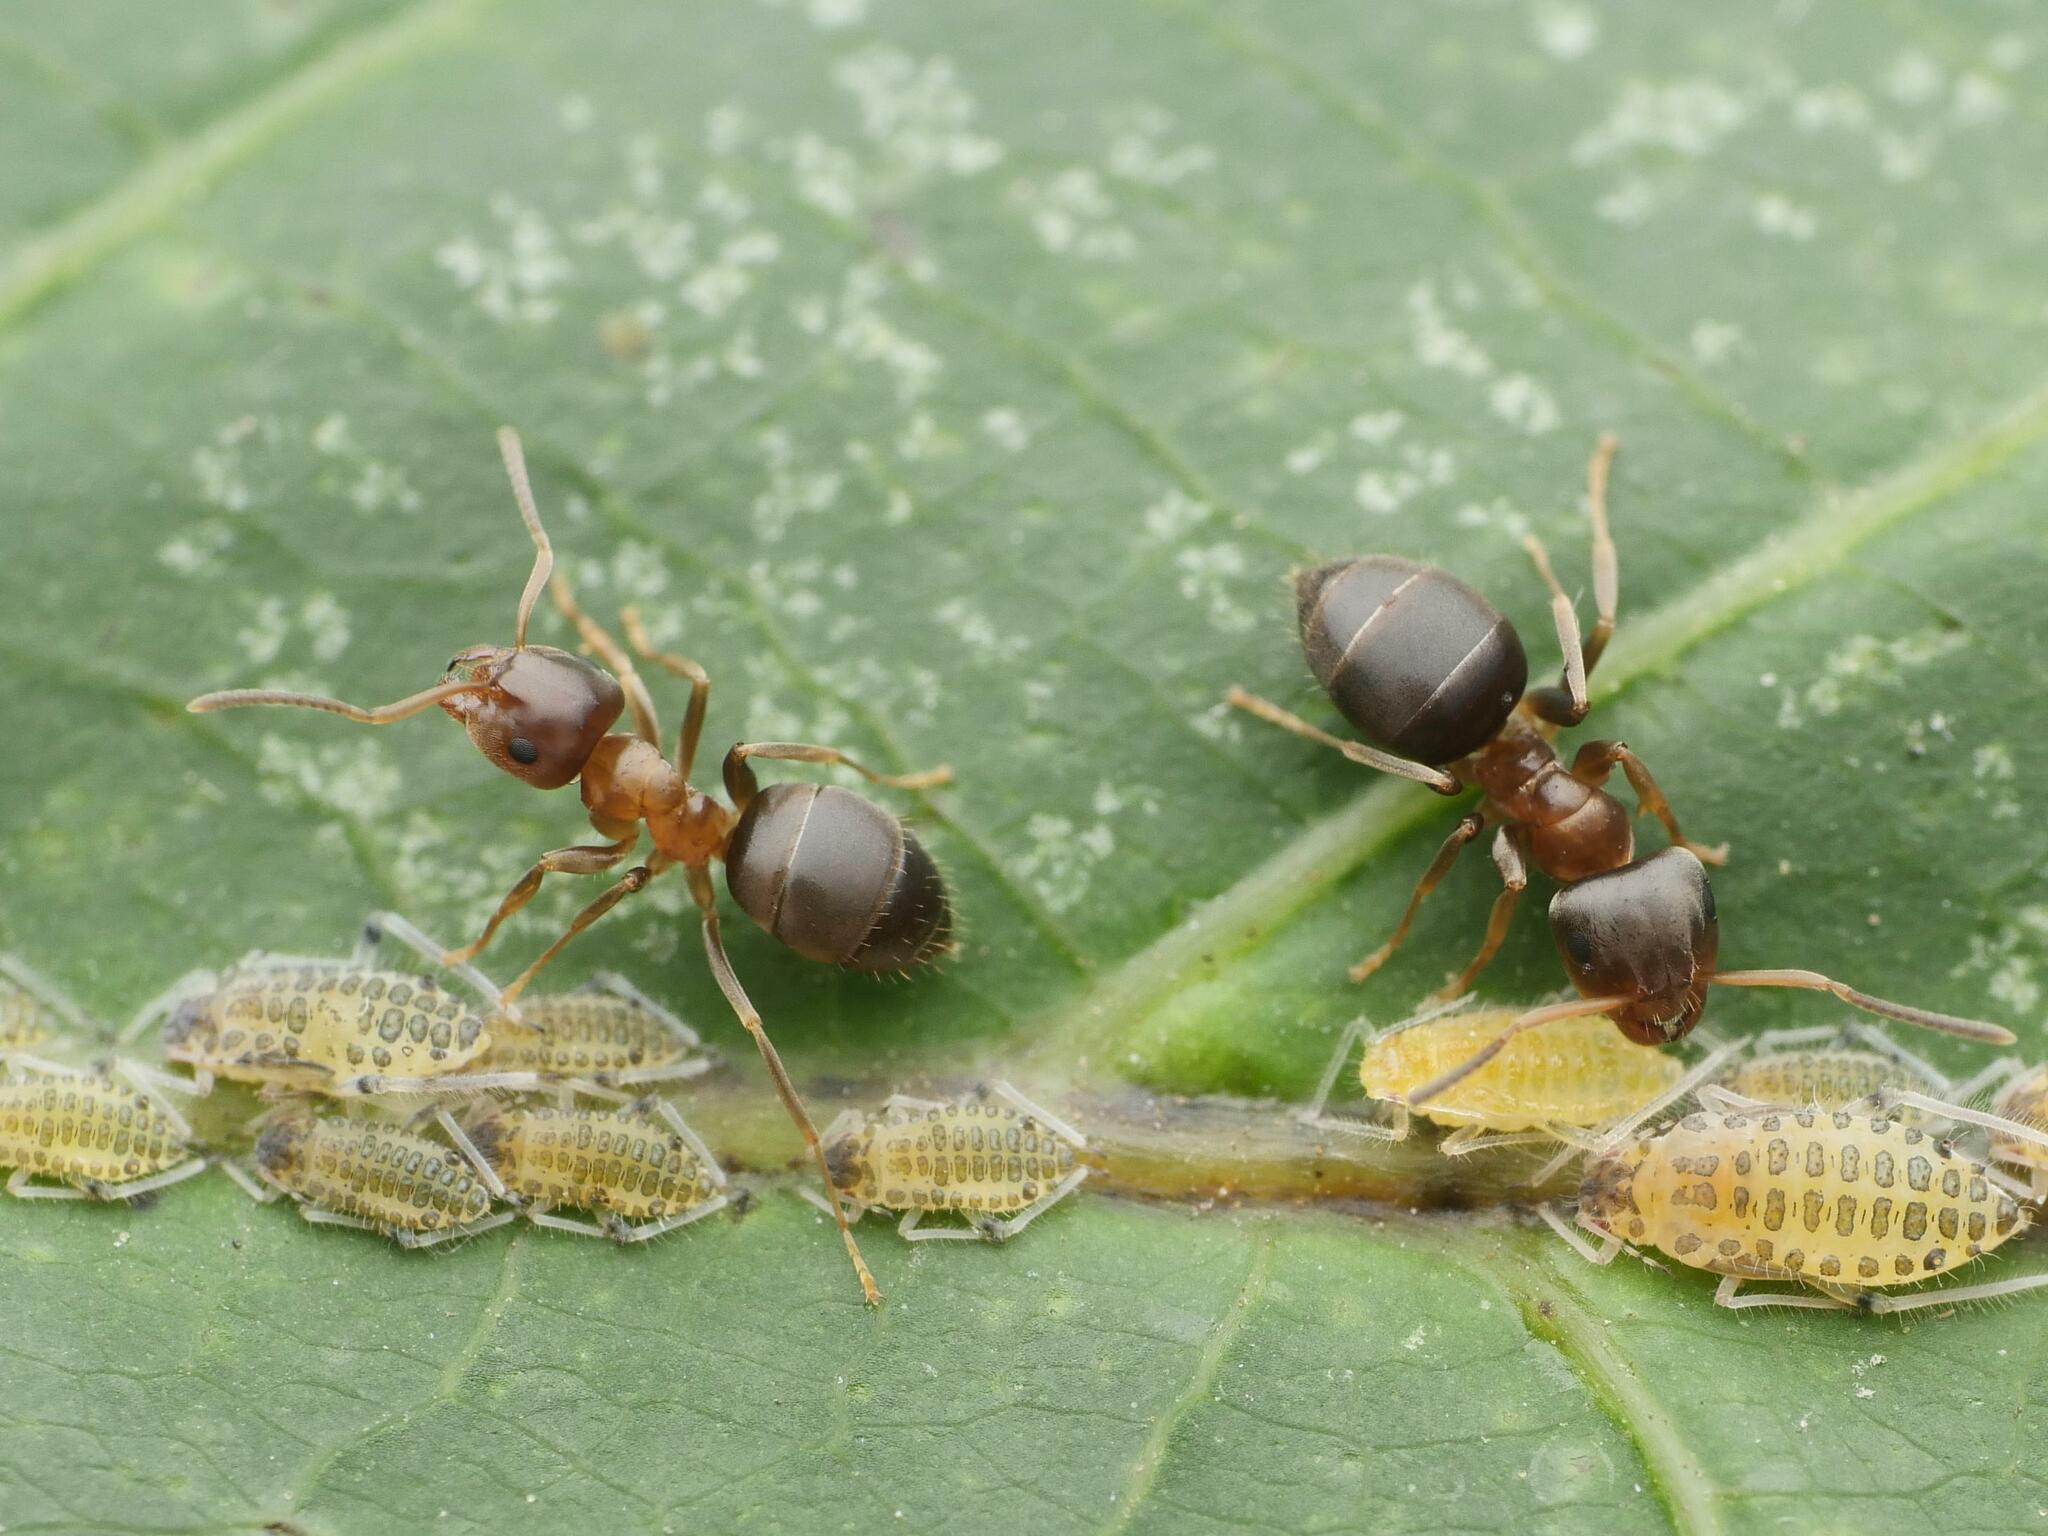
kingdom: Animalia
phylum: Arthropoda
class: Insecta
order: Hymenoptera
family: Formicidae
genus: Lasius
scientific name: Lasius brunneus
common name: Brown ant
